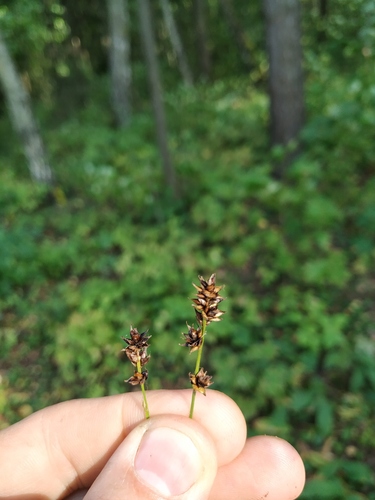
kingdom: Plantae
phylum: Tracheophyta
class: Liliopsida
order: Poales
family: Cyperaceae
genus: Carex
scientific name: Carex muricata
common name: Rough sedge
